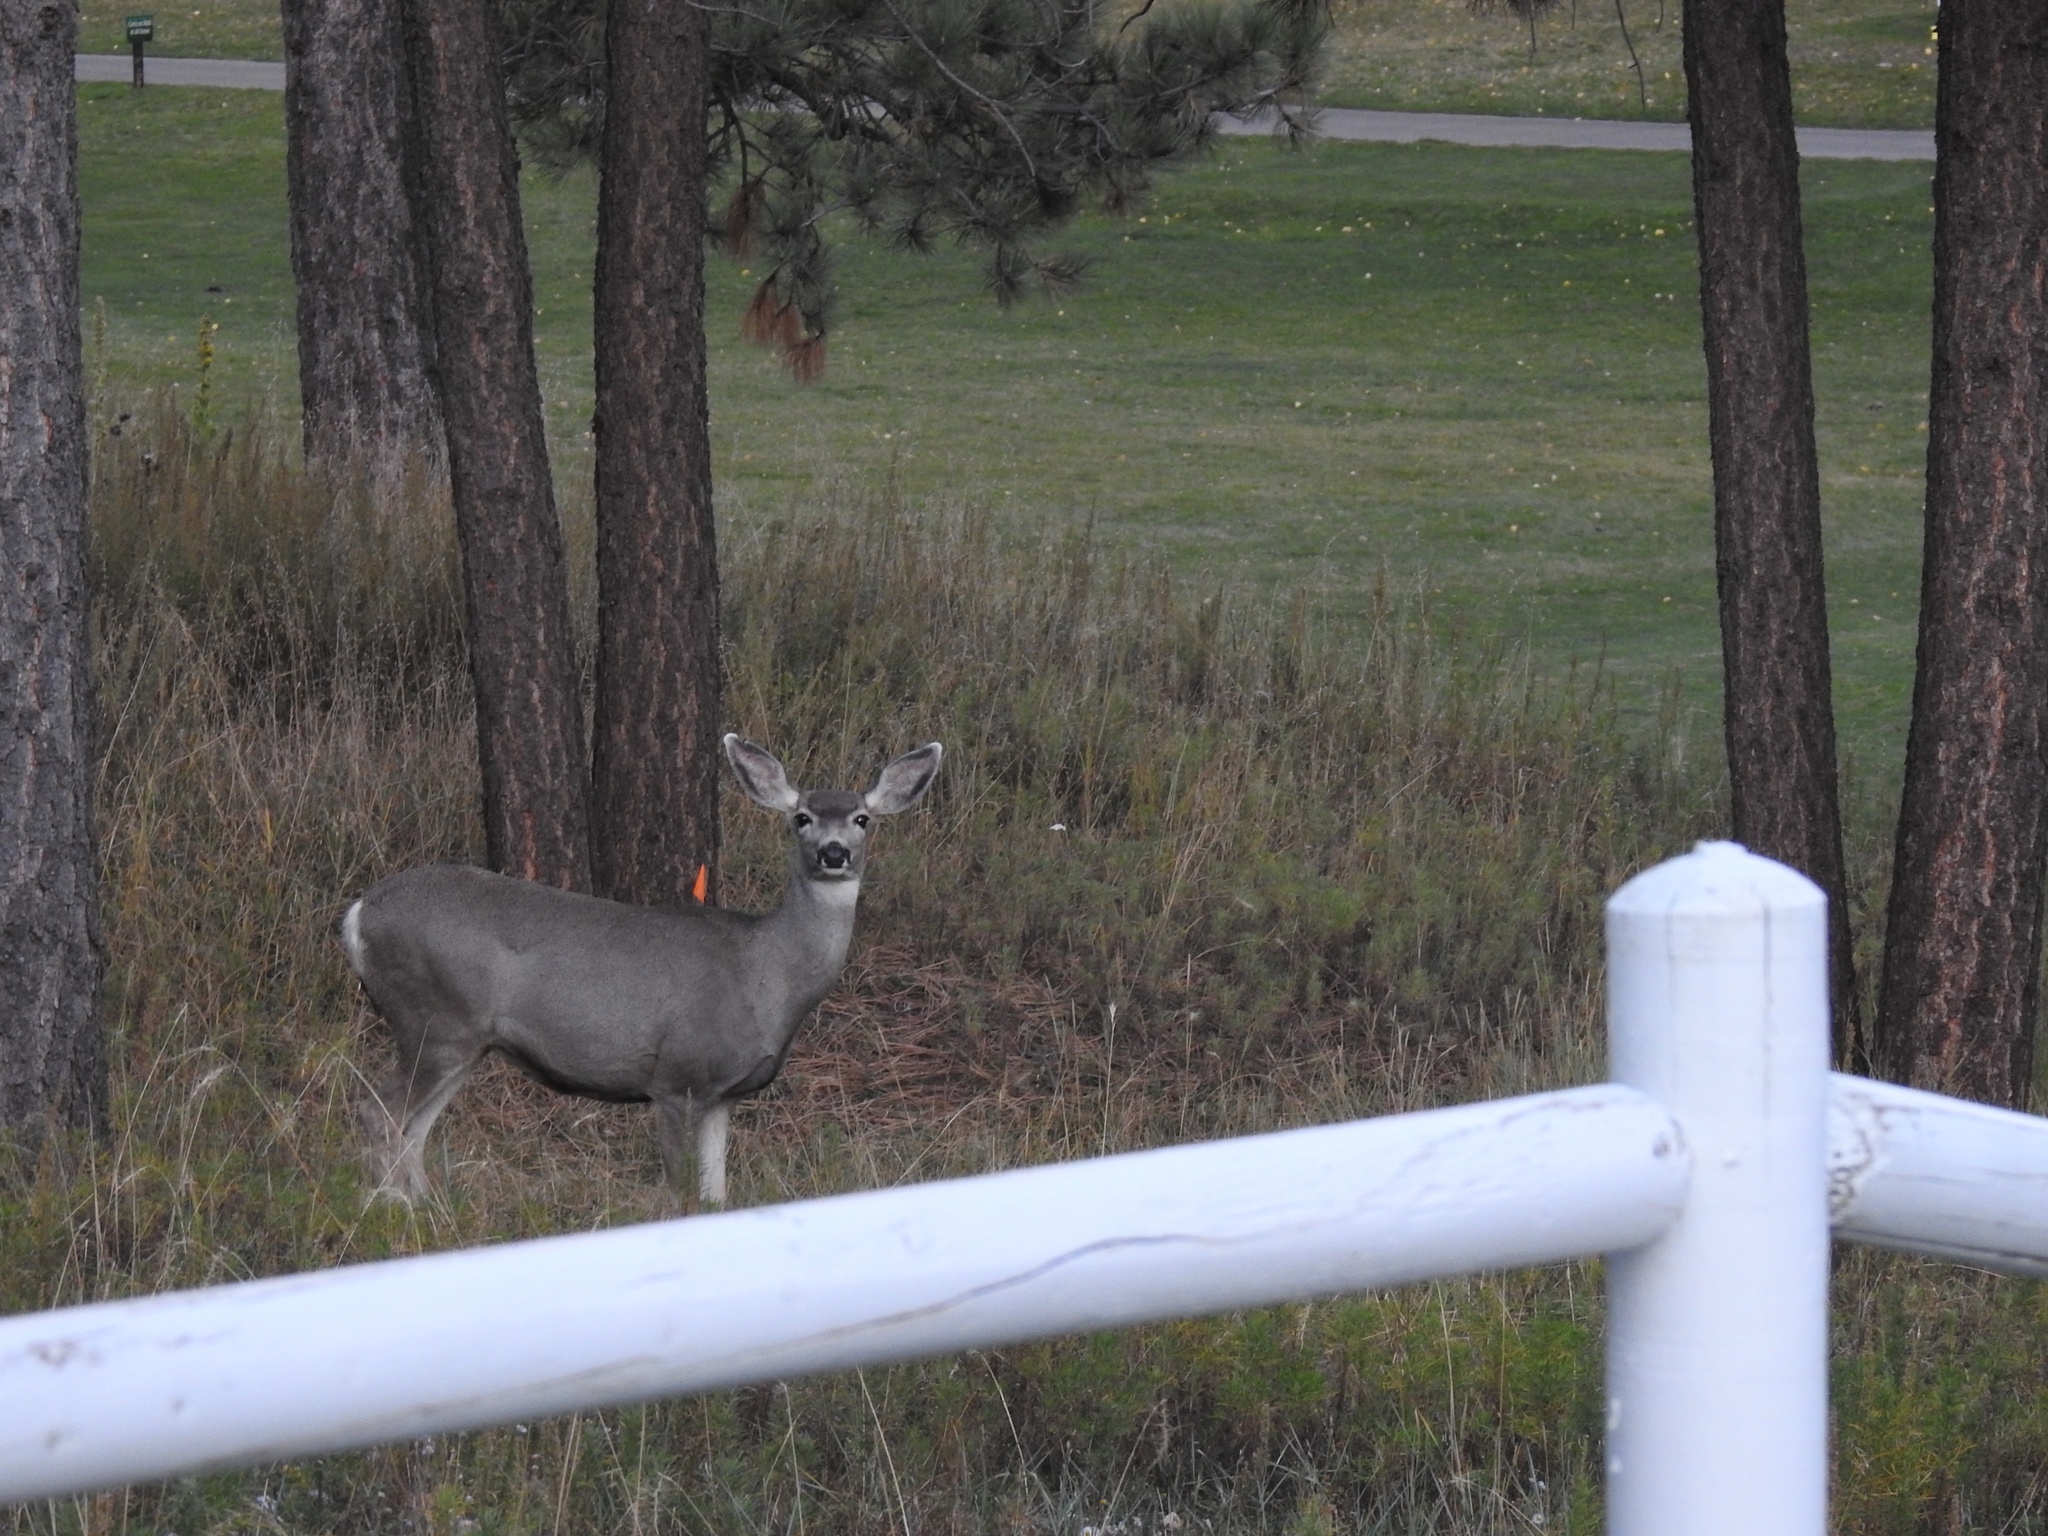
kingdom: Animalia
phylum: Chordata
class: Mammalia
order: Artiodactyla
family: Cervidae
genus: Odocoileus
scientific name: Odocoileus hemionus
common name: Mule deer
